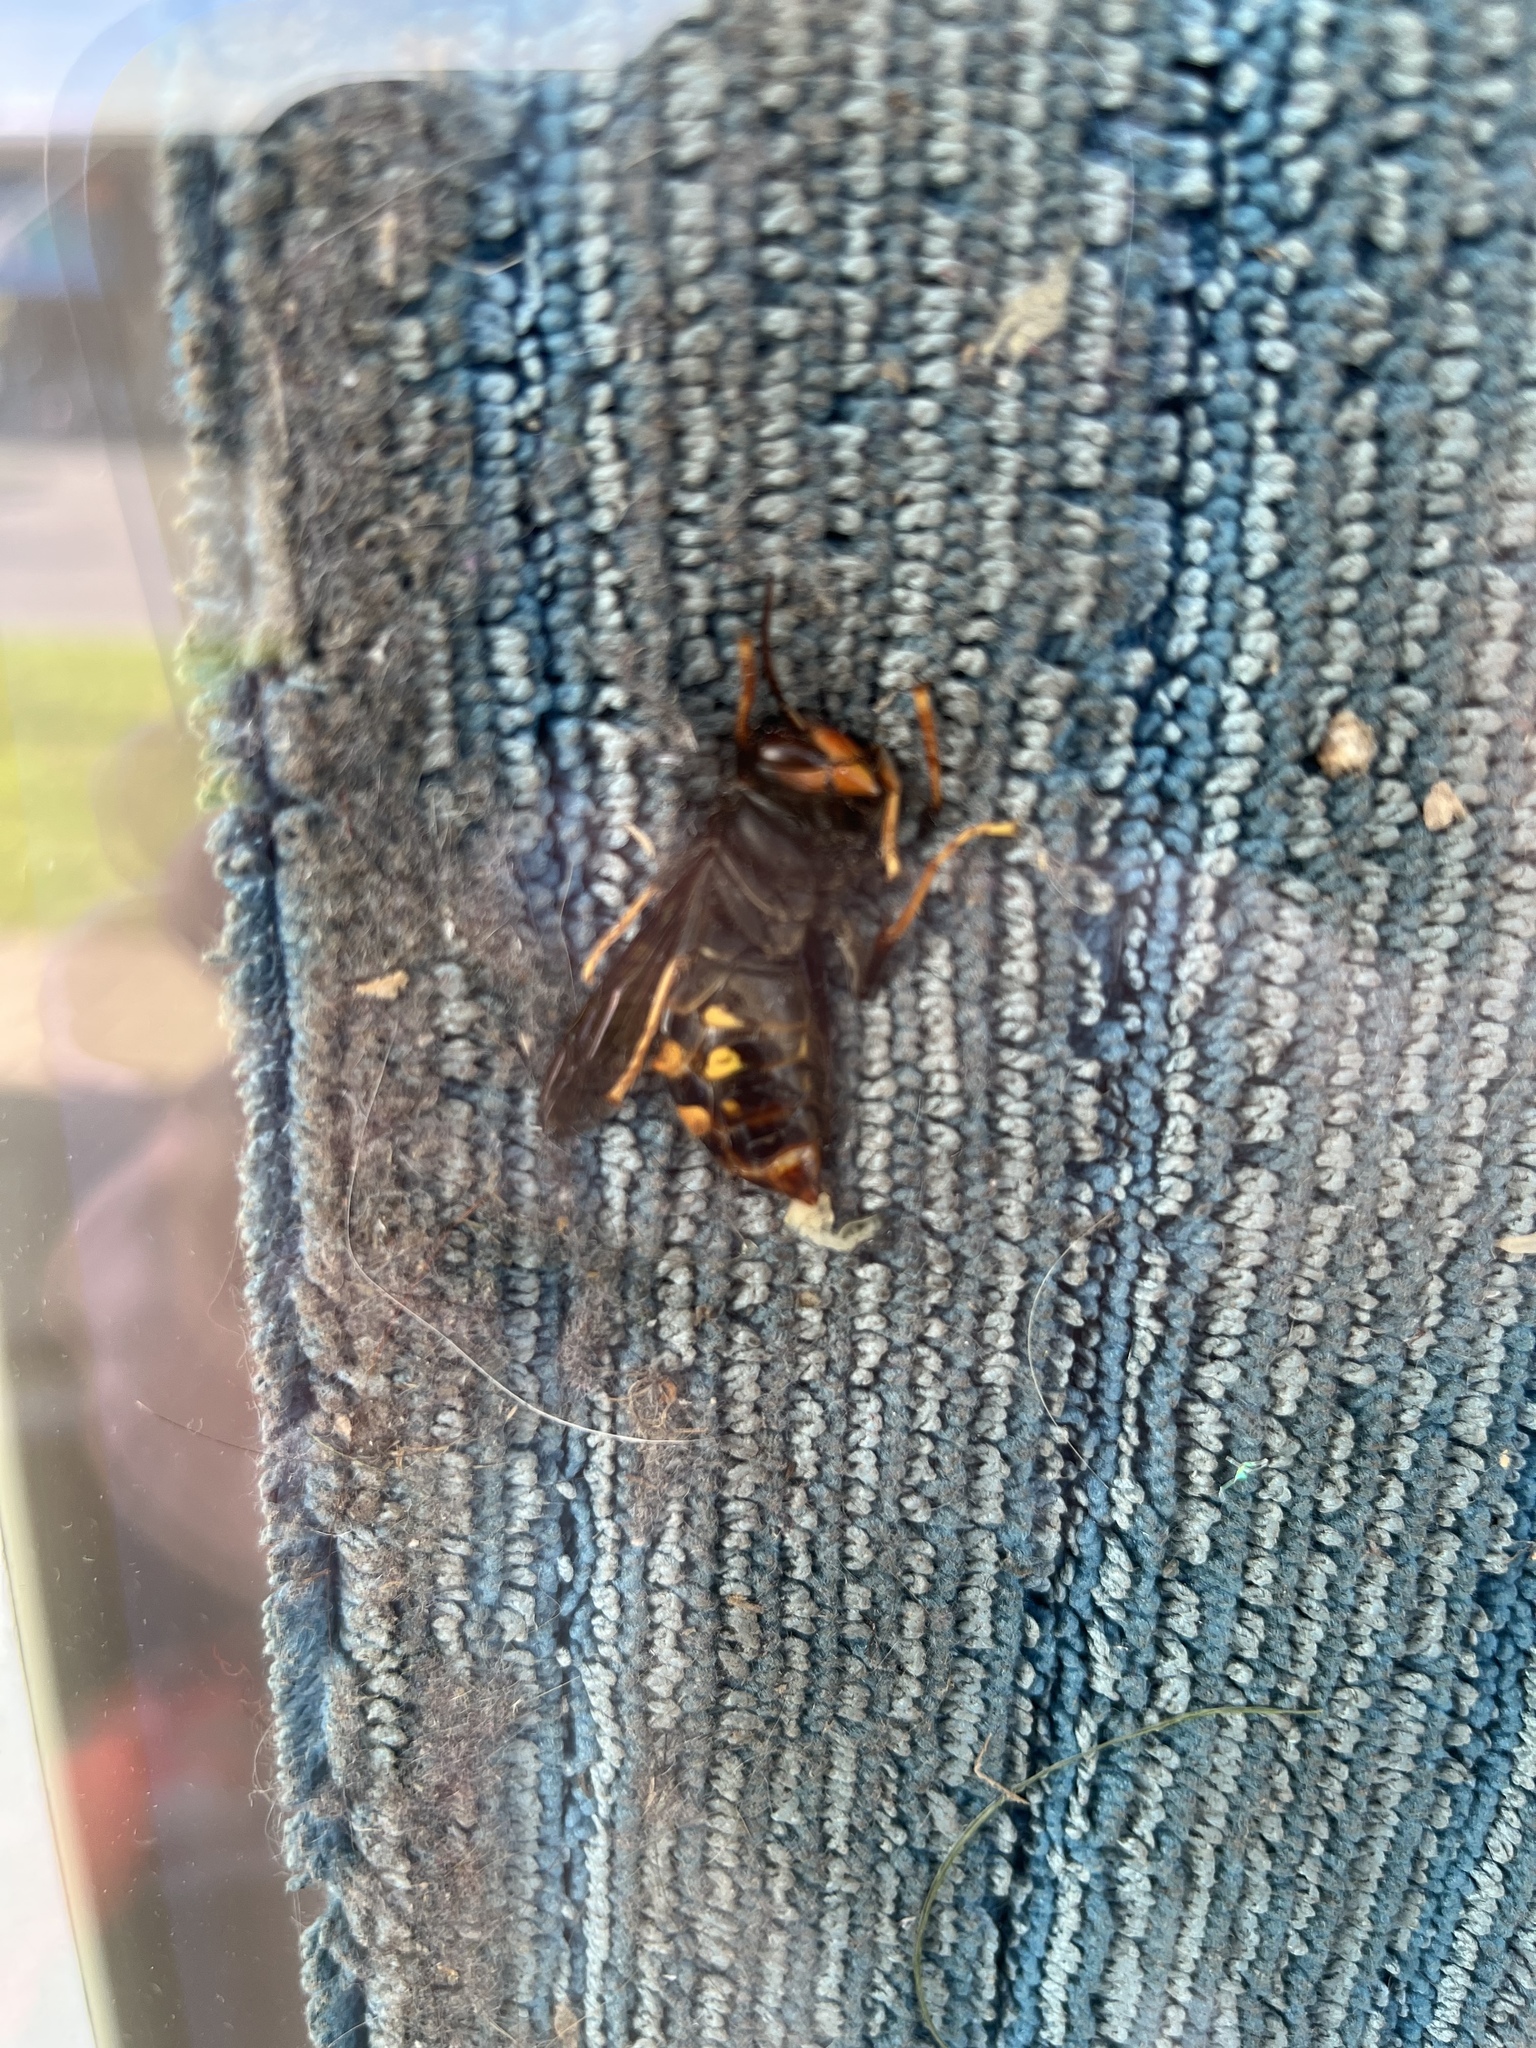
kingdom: Animalia
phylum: Arthropoda
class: Insecta
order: Hymenoptera
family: Vespidae
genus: Vespa
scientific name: Vespa velutina
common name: Asian hornet
